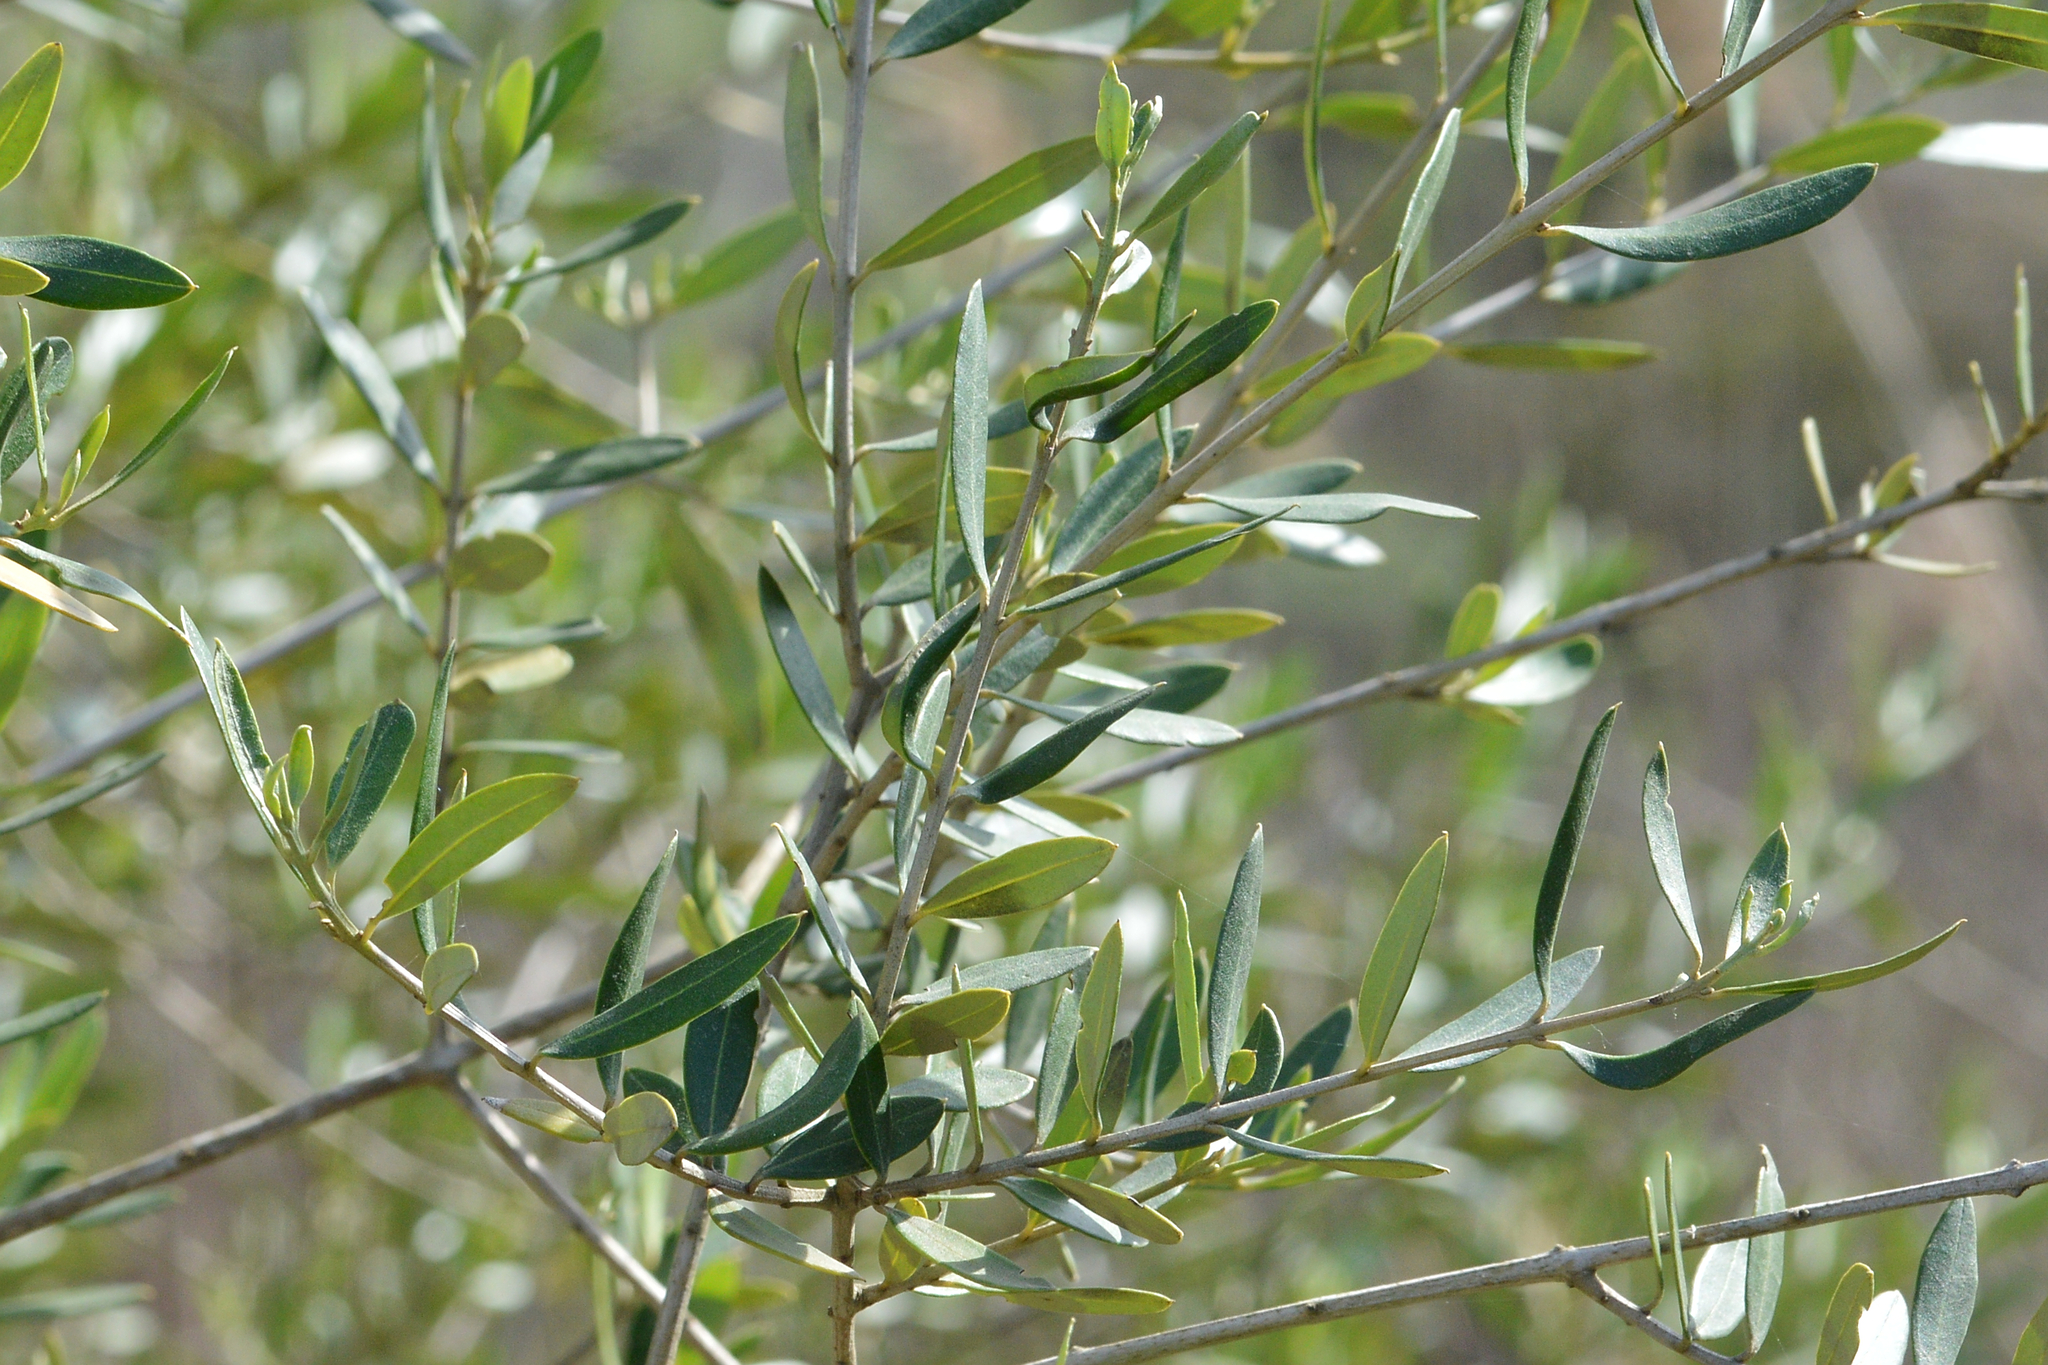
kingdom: Plantae
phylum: Tracheophyta
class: Magnoliopsida
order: Lamiales
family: Oleaceae
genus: Olea
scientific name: Olea europaea
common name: Olive
